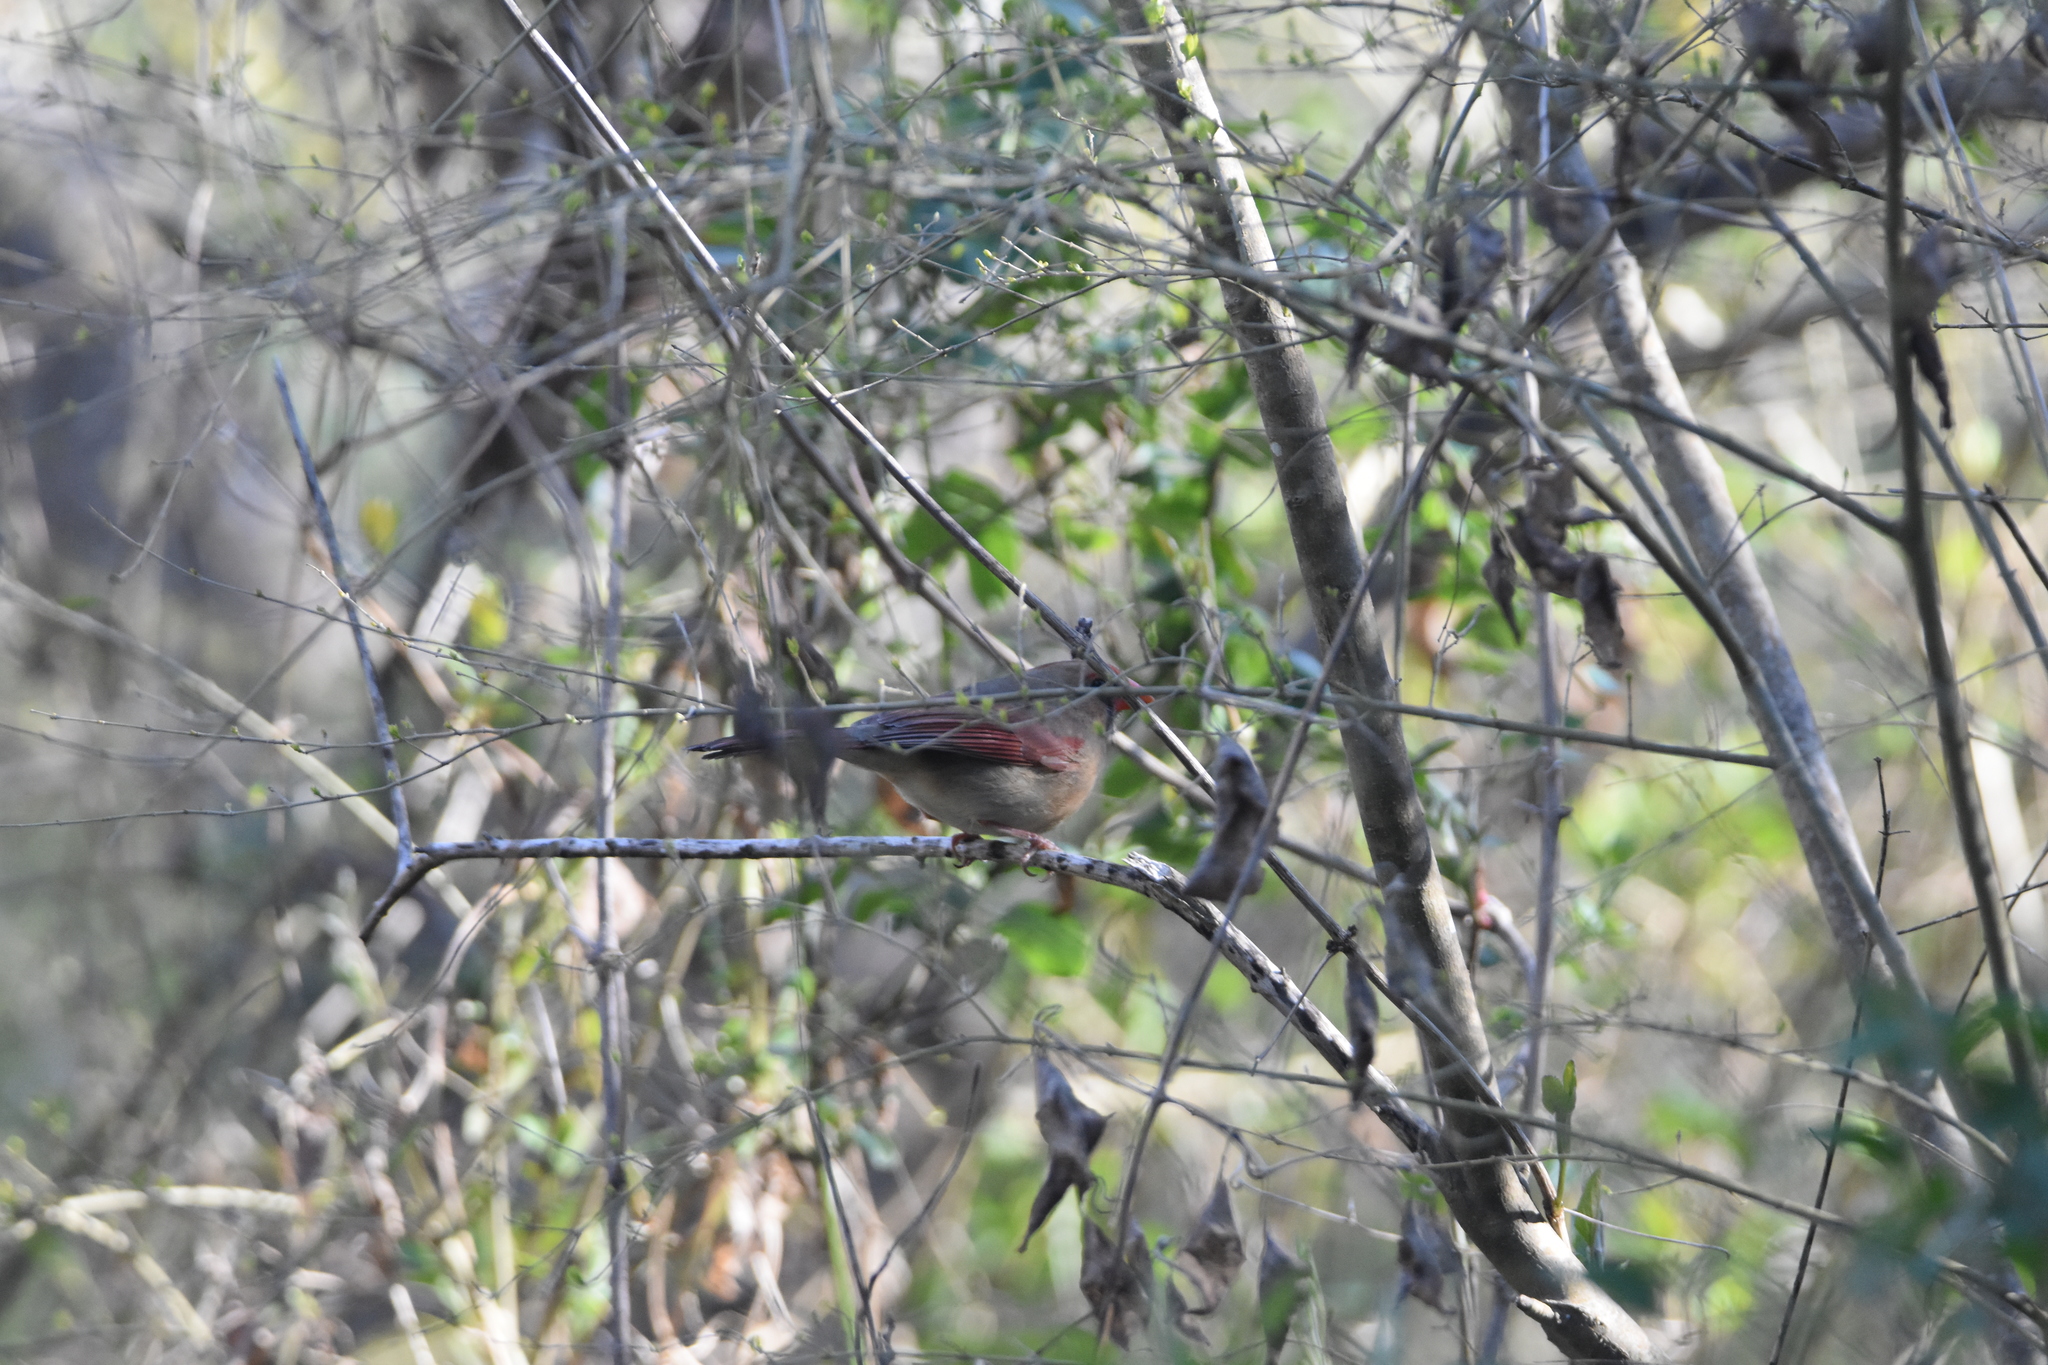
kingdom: Animalia
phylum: Chordata
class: Aves
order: Passeriformes
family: Cardinalidae
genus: Cardinalis
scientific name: Cardinalis cardinalis
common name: Northern cardinal
